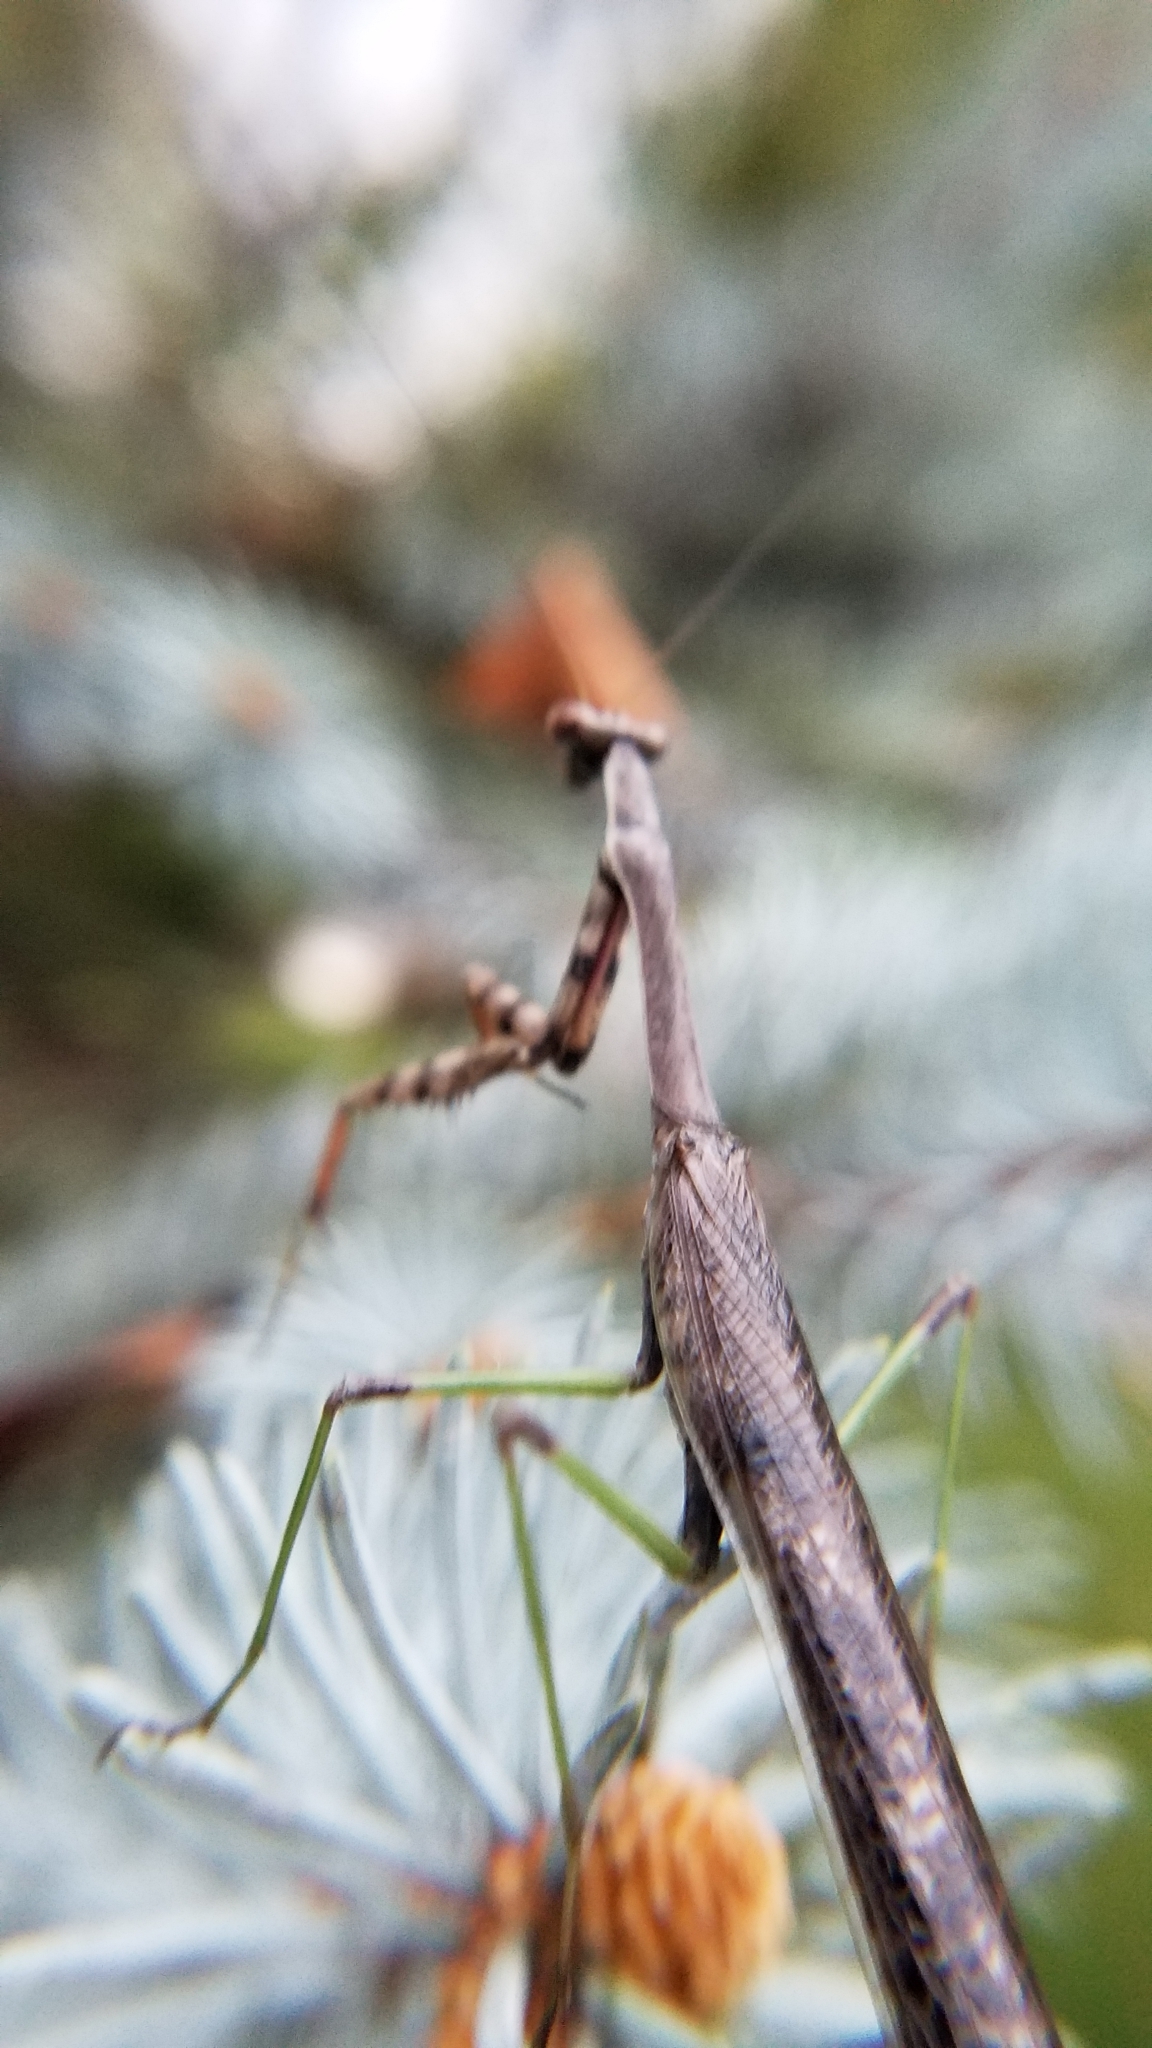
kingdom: Animalia
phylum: Arthropoda
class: Insecta
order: Mantodea
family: Mantidae
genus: Stagmomantis
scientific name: Stagmomantis carolina
